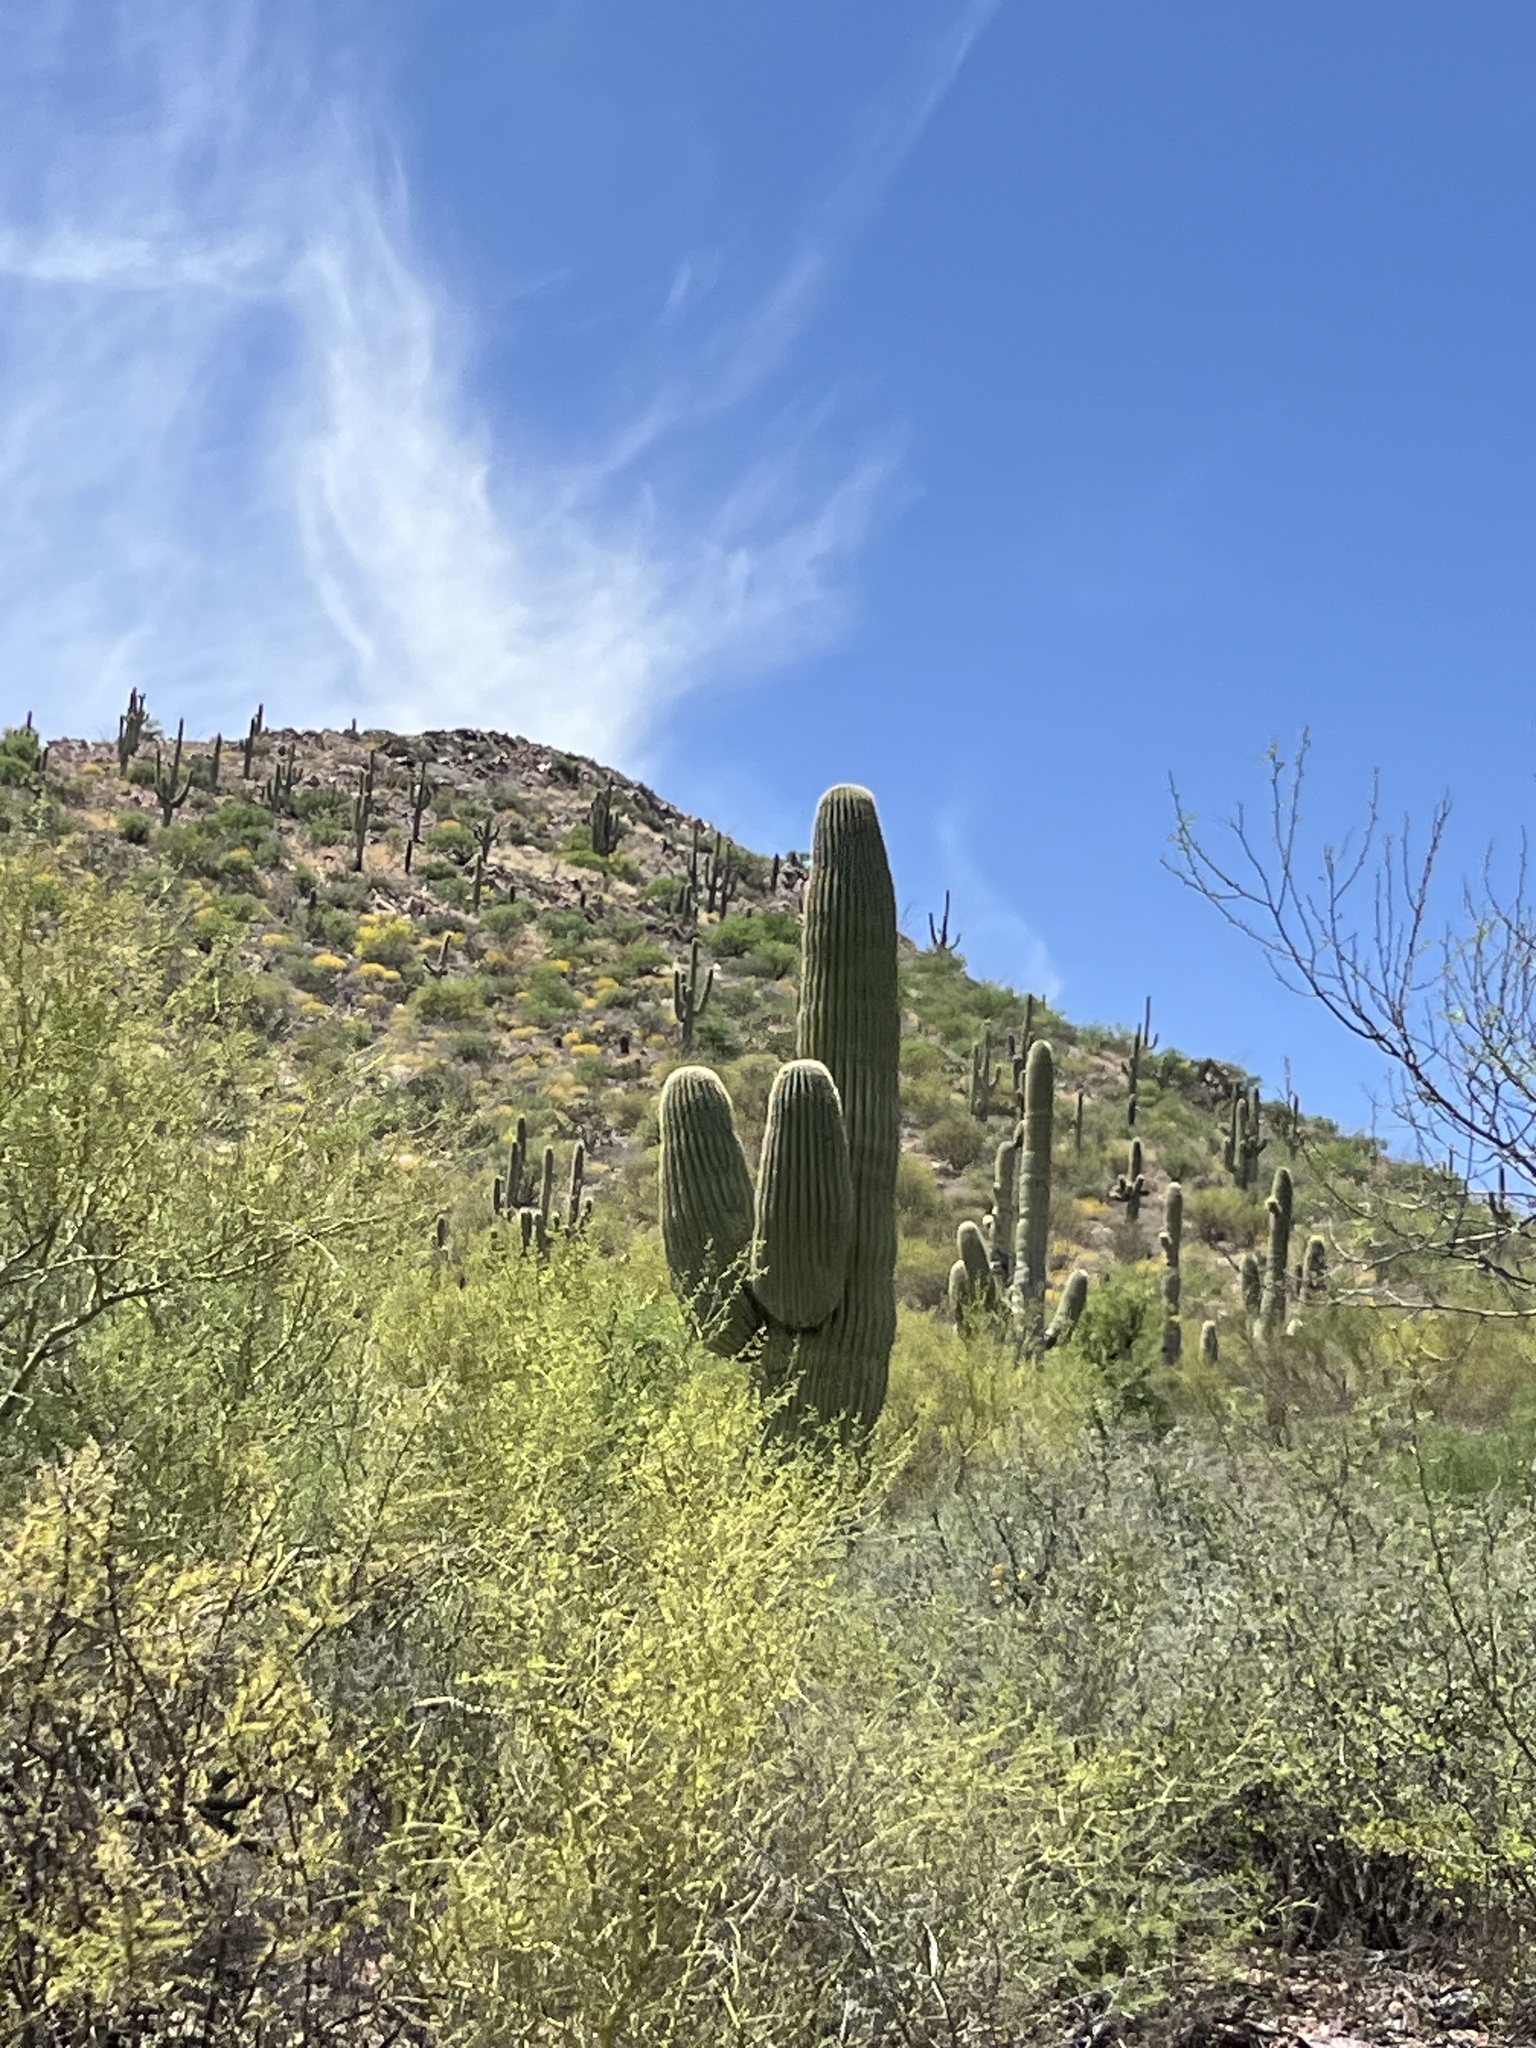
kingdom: Plantae
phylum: Tracheophyta
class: Magnoliopsida
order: Caryophyllales
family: Cactaceae
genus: Carnegiea
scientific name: Carnegiea gigantea
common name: Saguaro
